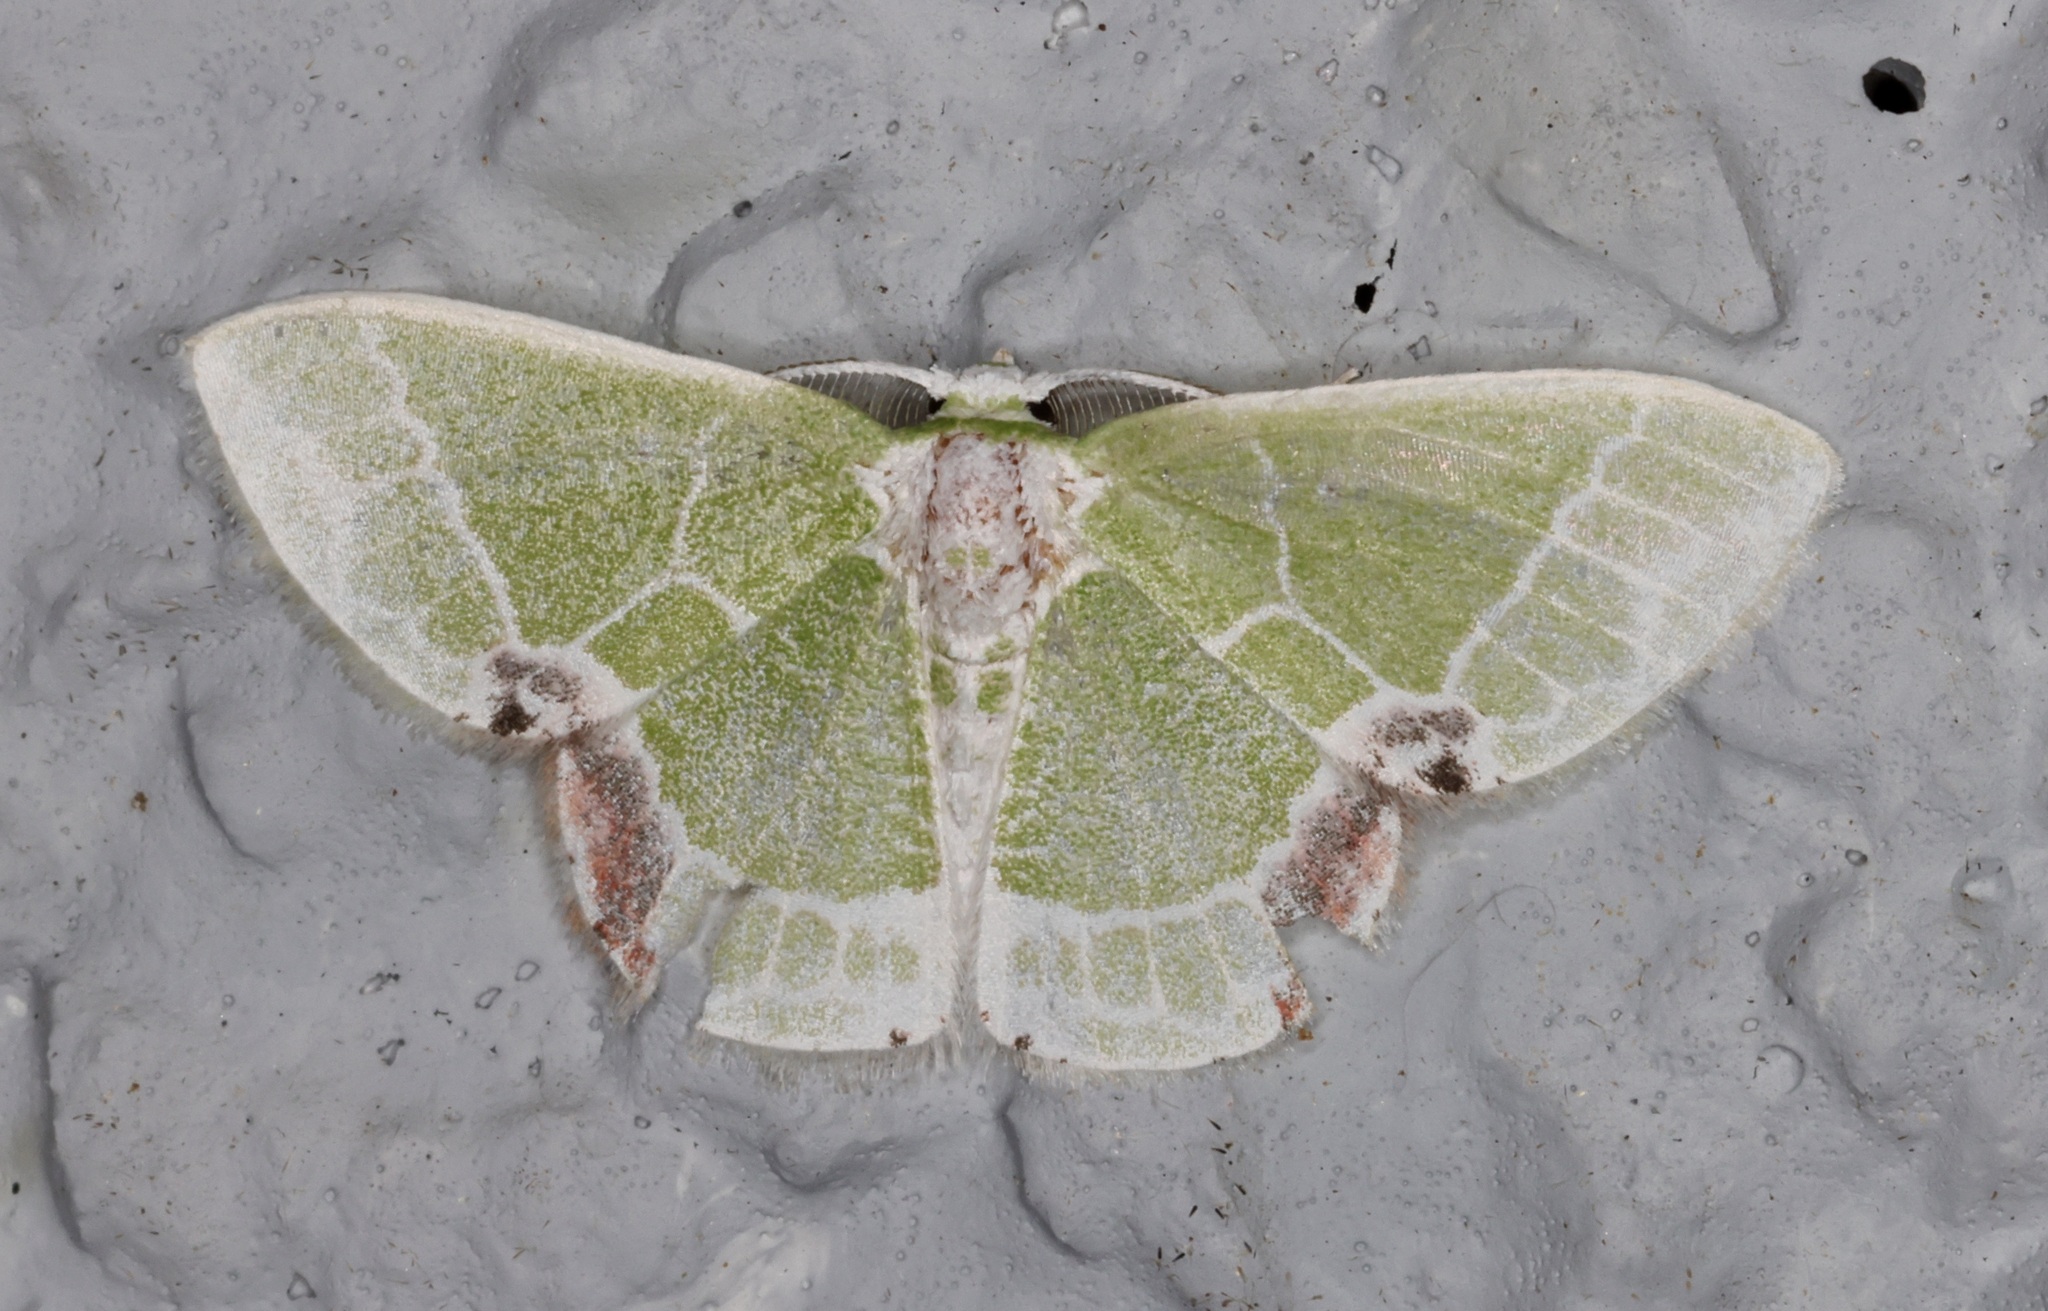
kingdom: Animalia
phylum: Arthropoda
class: Insecta
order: Lepidoptera
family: Geometridae
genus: Protuliocnemis
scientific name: Protuliocnemis castalaria
